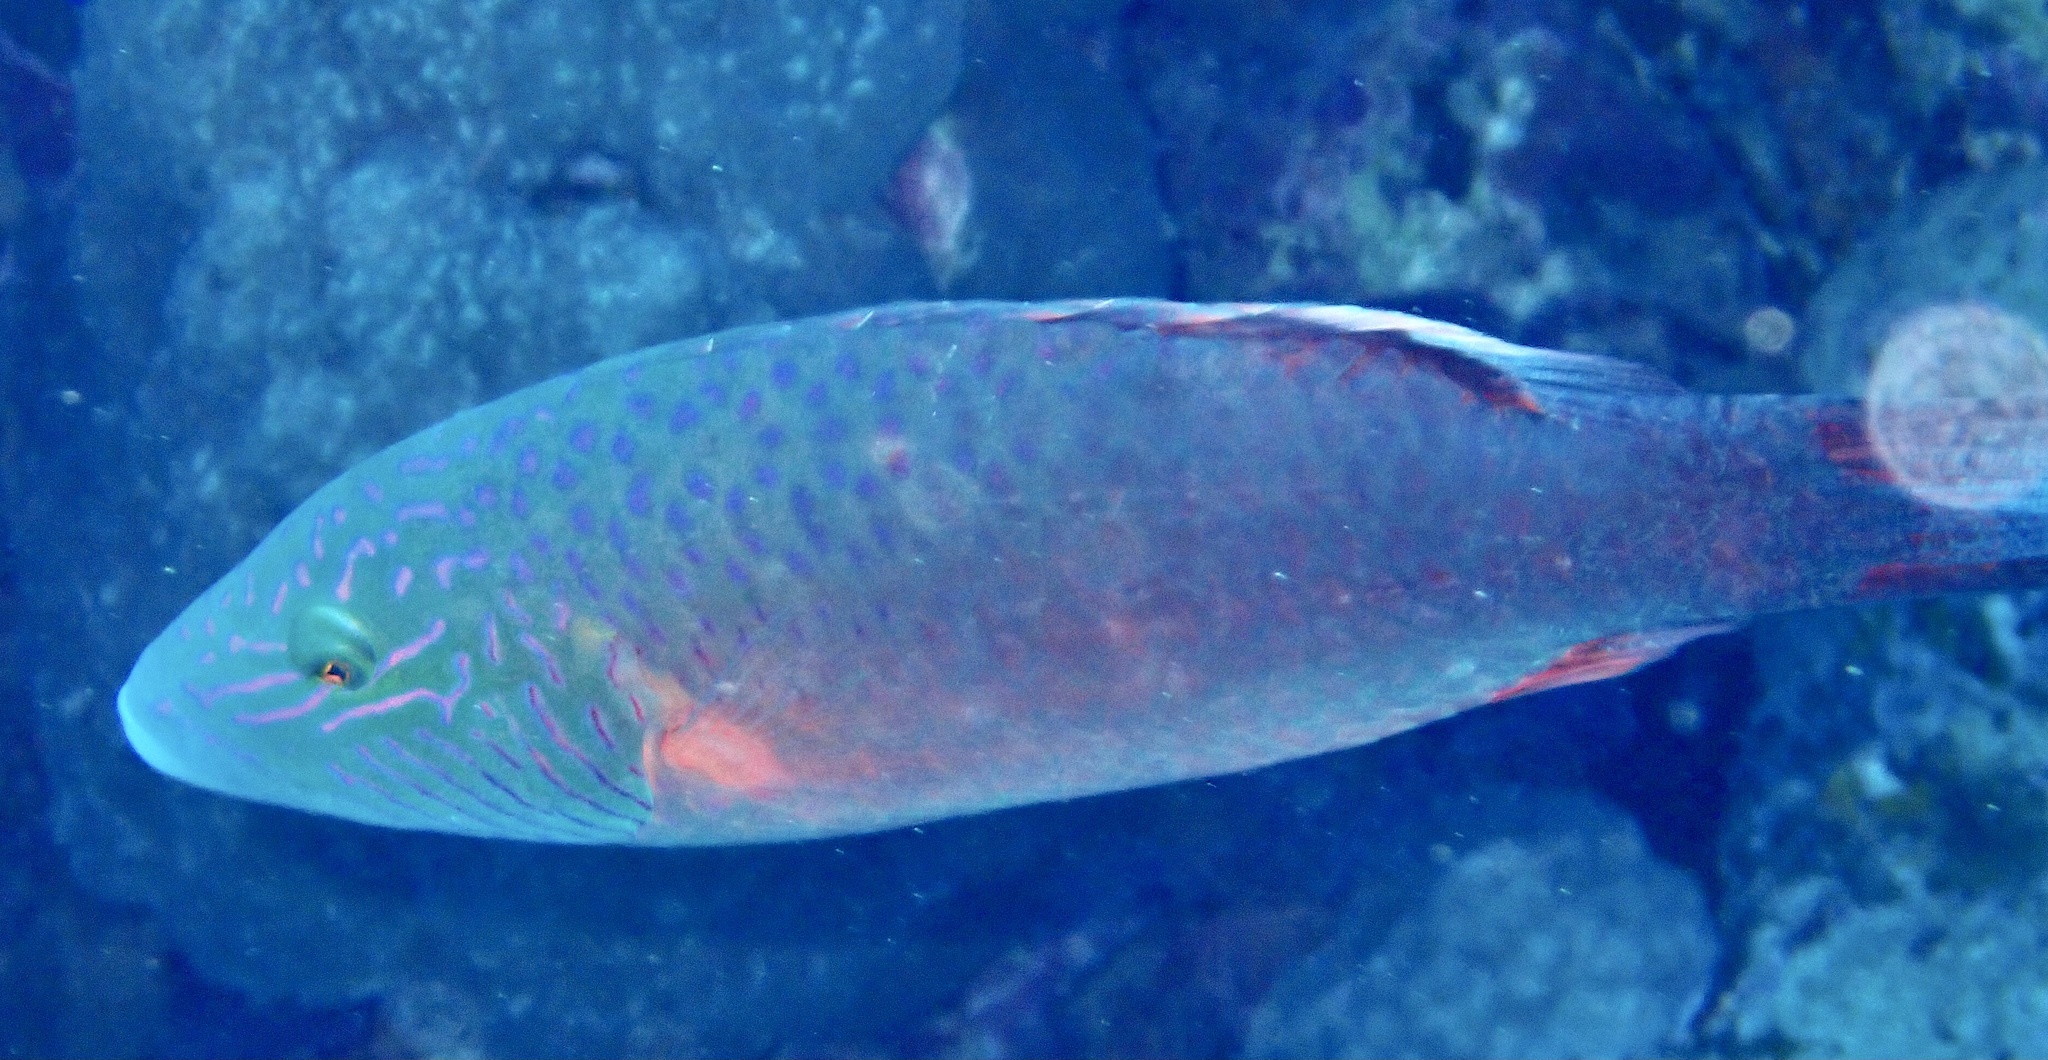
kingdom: Animalia
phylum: Chordata
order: Perciformes
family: Labridae
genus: Oxycheilinus
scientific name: Oxycheilinus digramma
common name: Bandcheek wrasse
